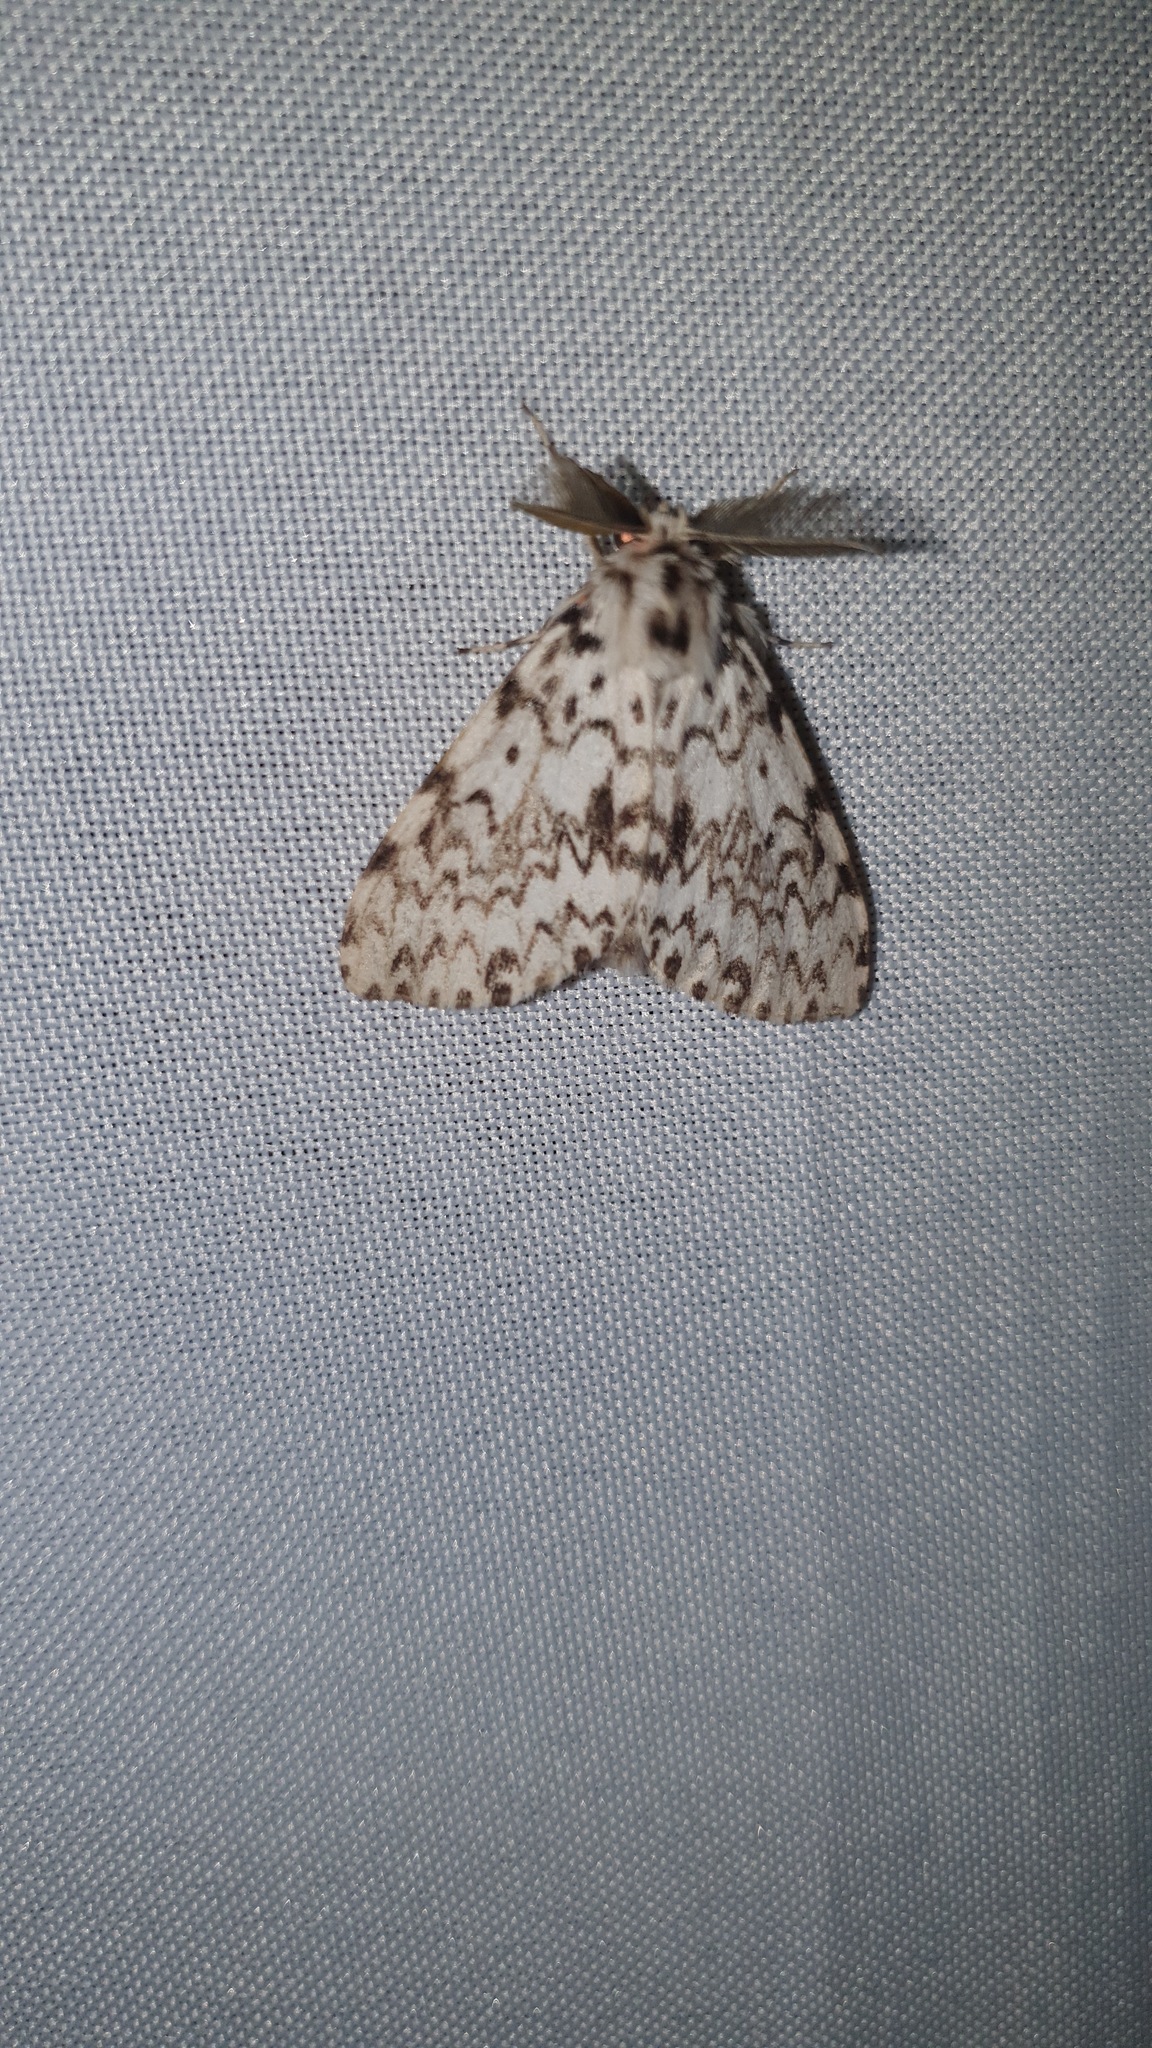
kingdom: Animalia
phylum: Arthropoda
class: Insecta
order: Lepidoptera
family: Erebidae
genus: Lymantria
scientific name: Lymantria monacha
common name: Black arches
